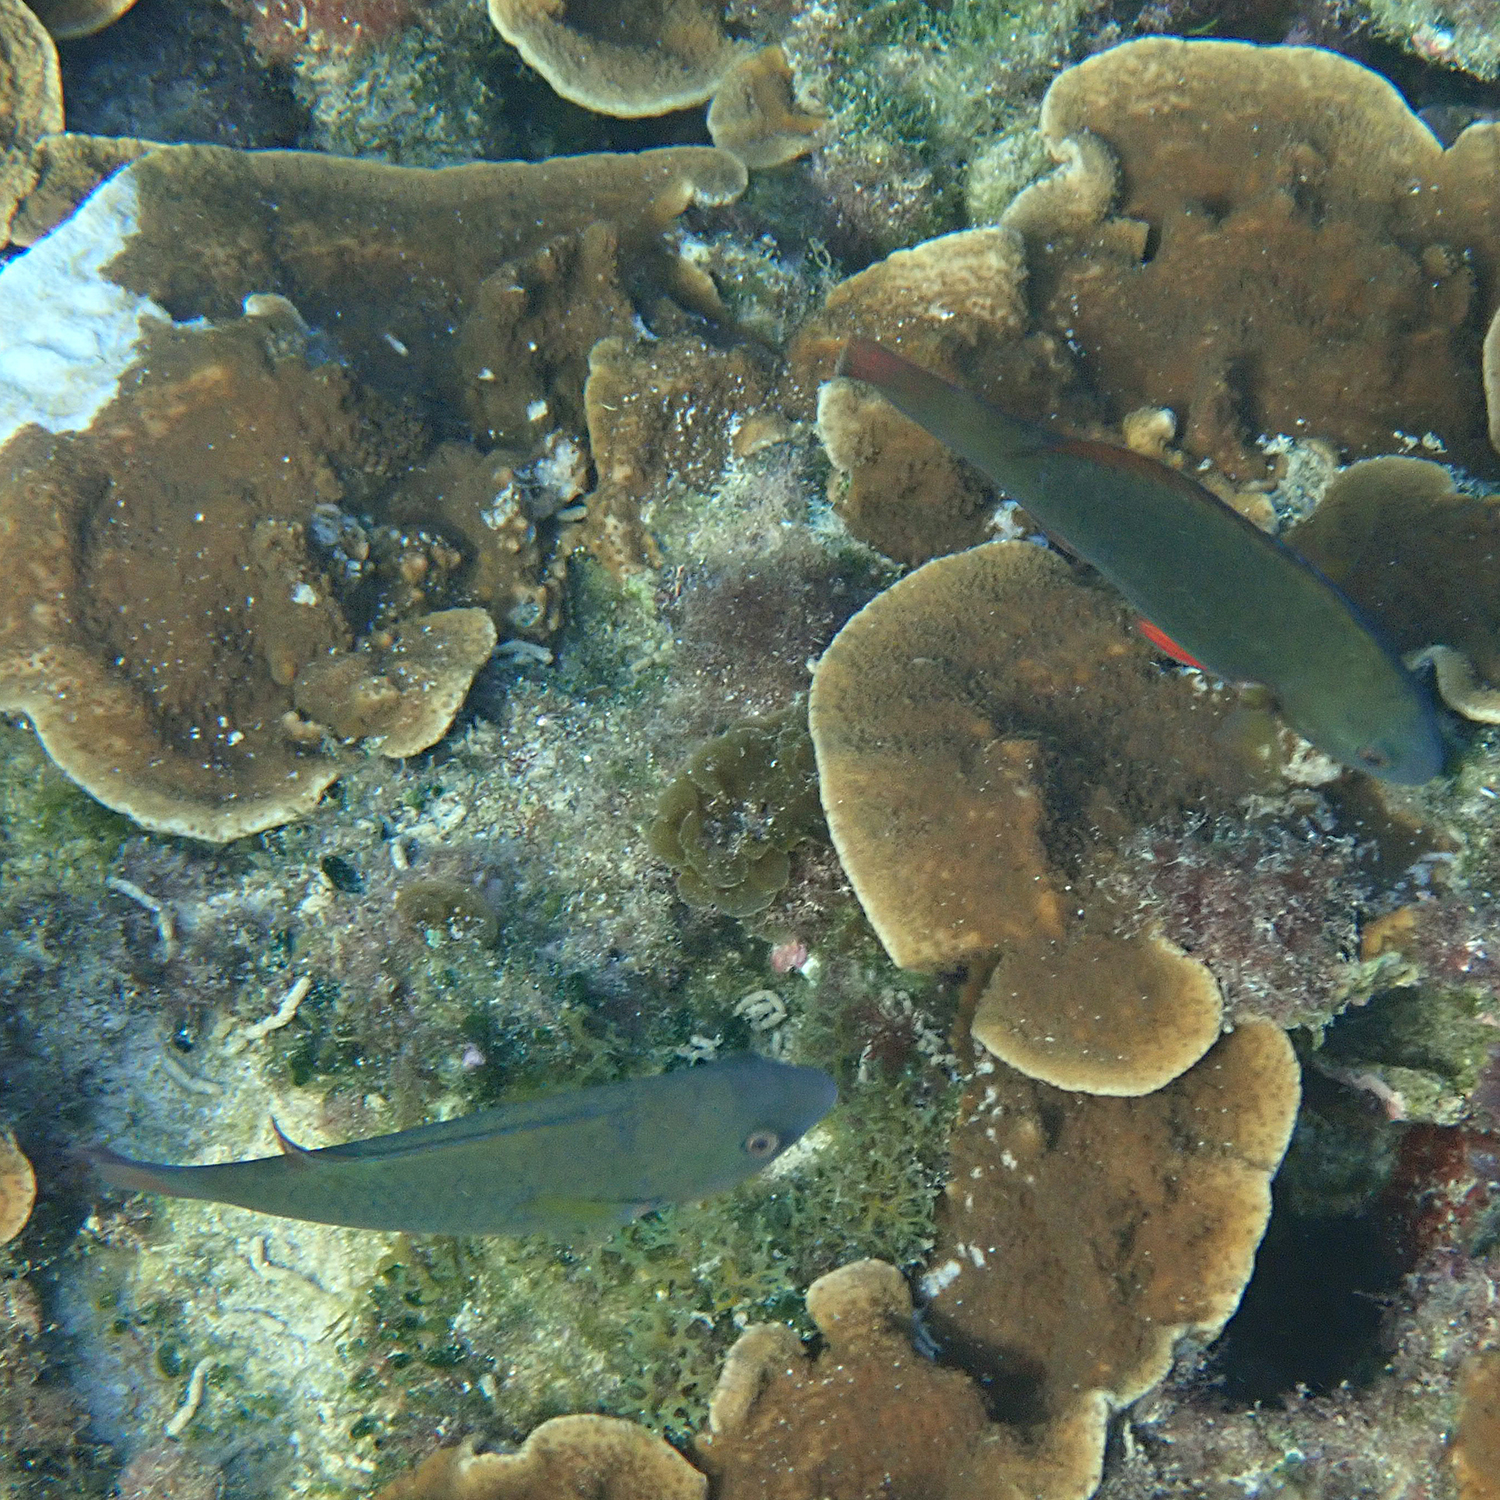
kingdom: Animalia
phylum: Chordata
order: Perciformes
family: Scaridae
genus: Scarus
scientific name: Scarus psittacus
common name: Palenose parrotfish
